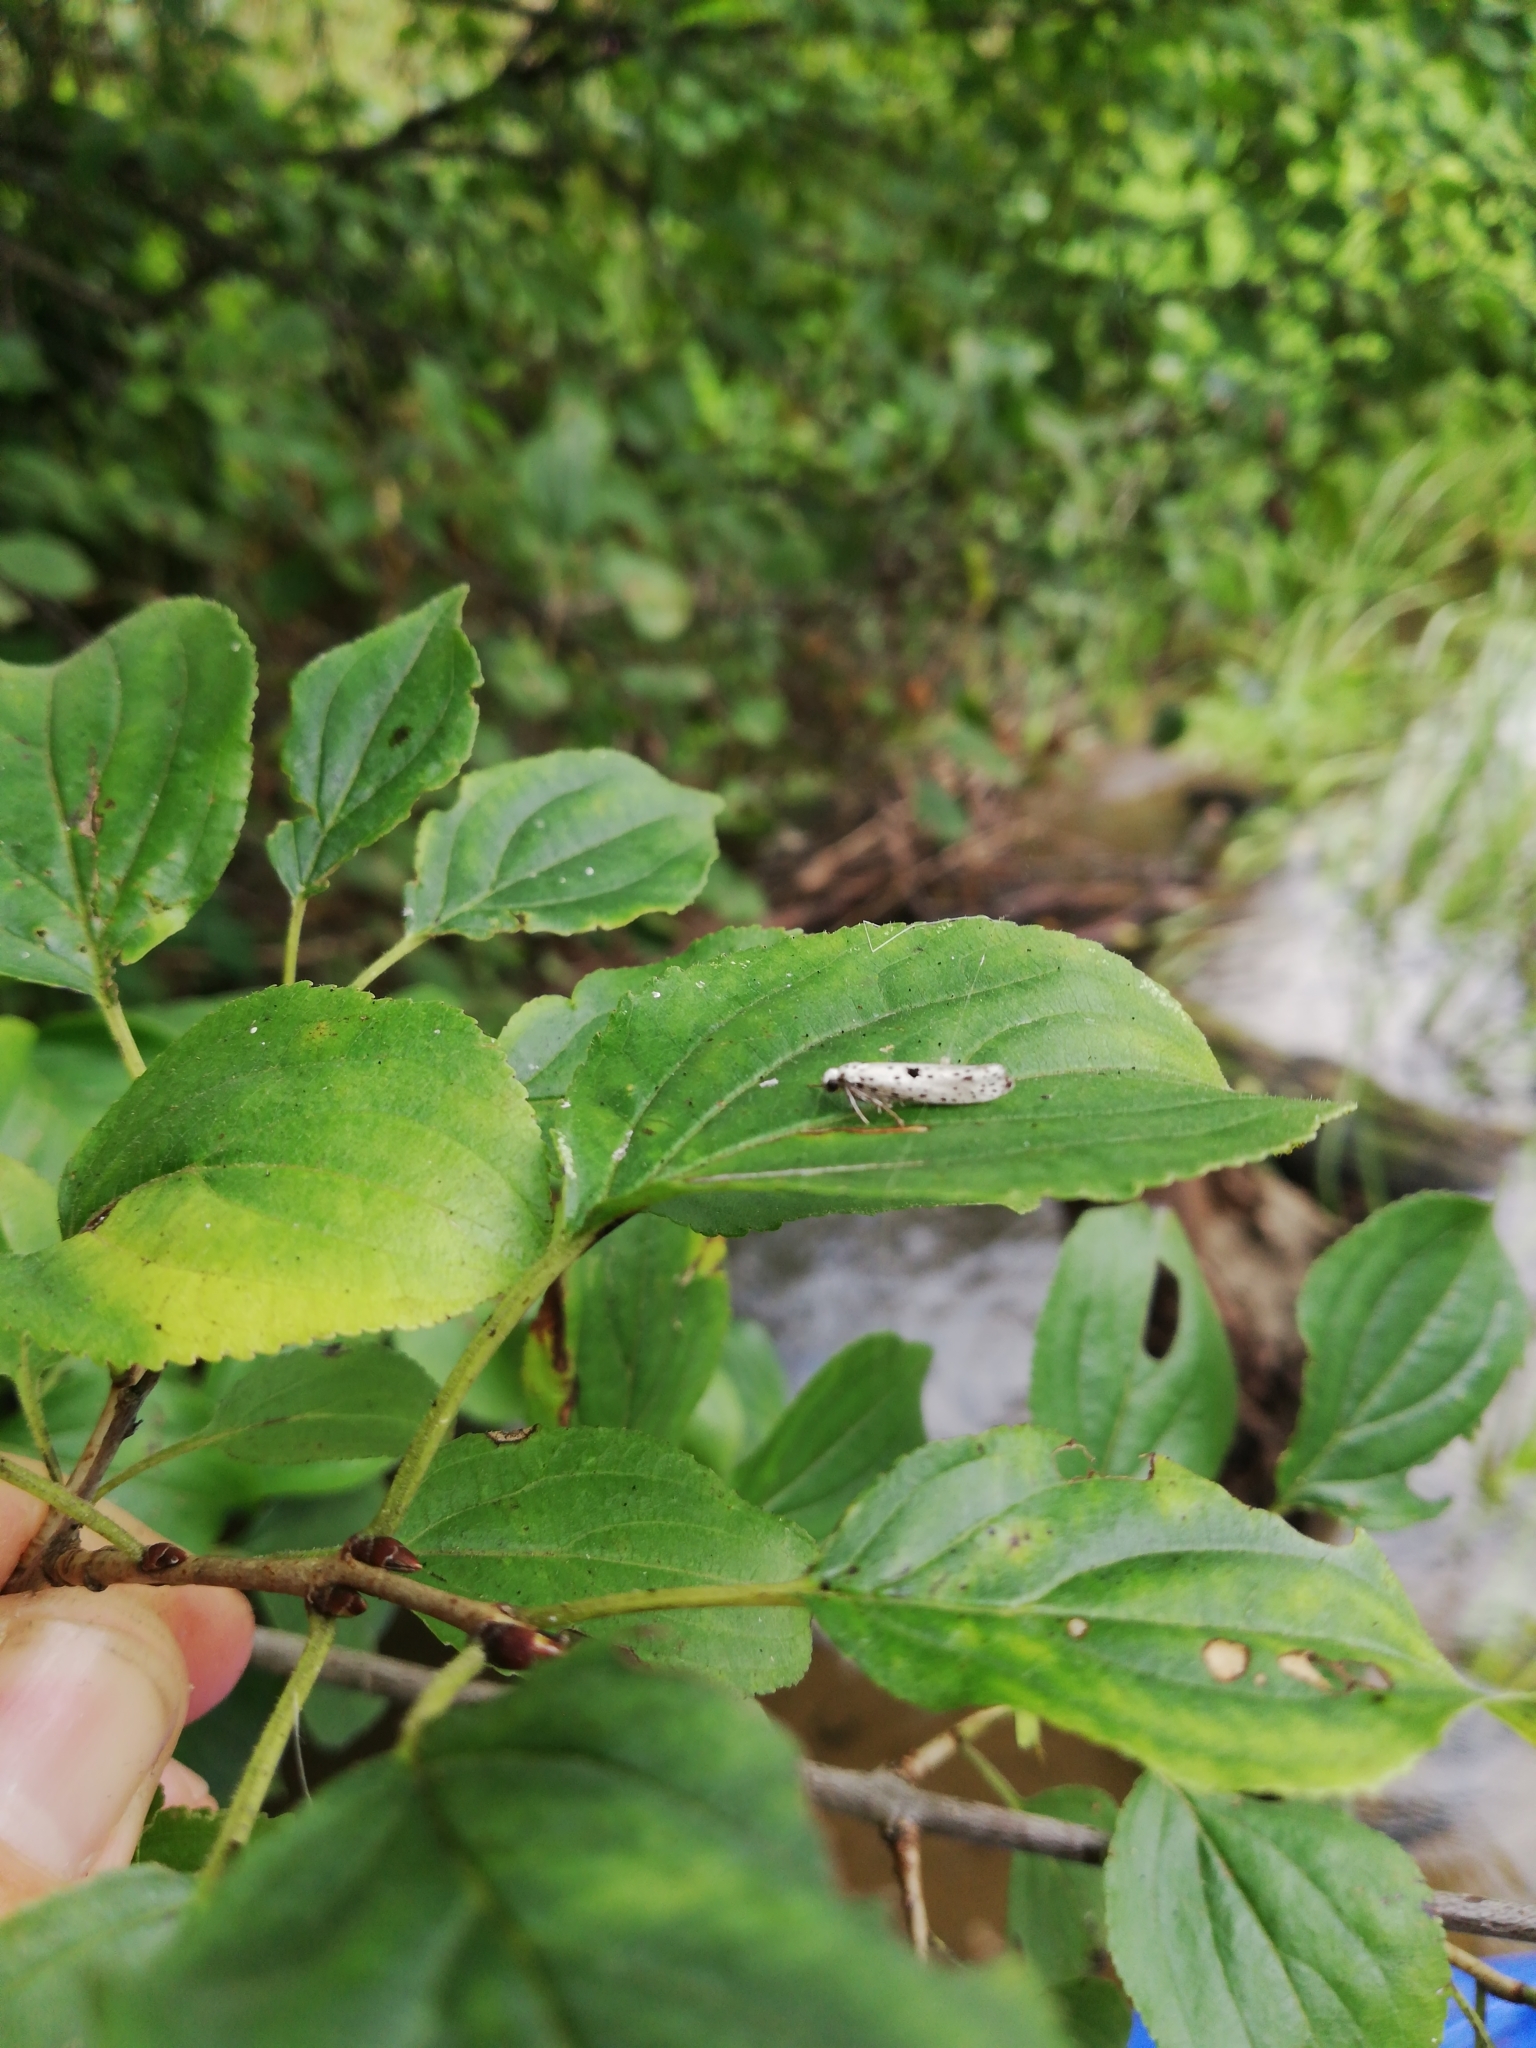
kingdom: Animalia
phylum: Arthropoda
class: Insecta
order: Lepidoptera
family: Yponomeutidae
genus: Yponomeuta
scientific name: Yponomeuta plumbella
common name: Black-tipped ermine
